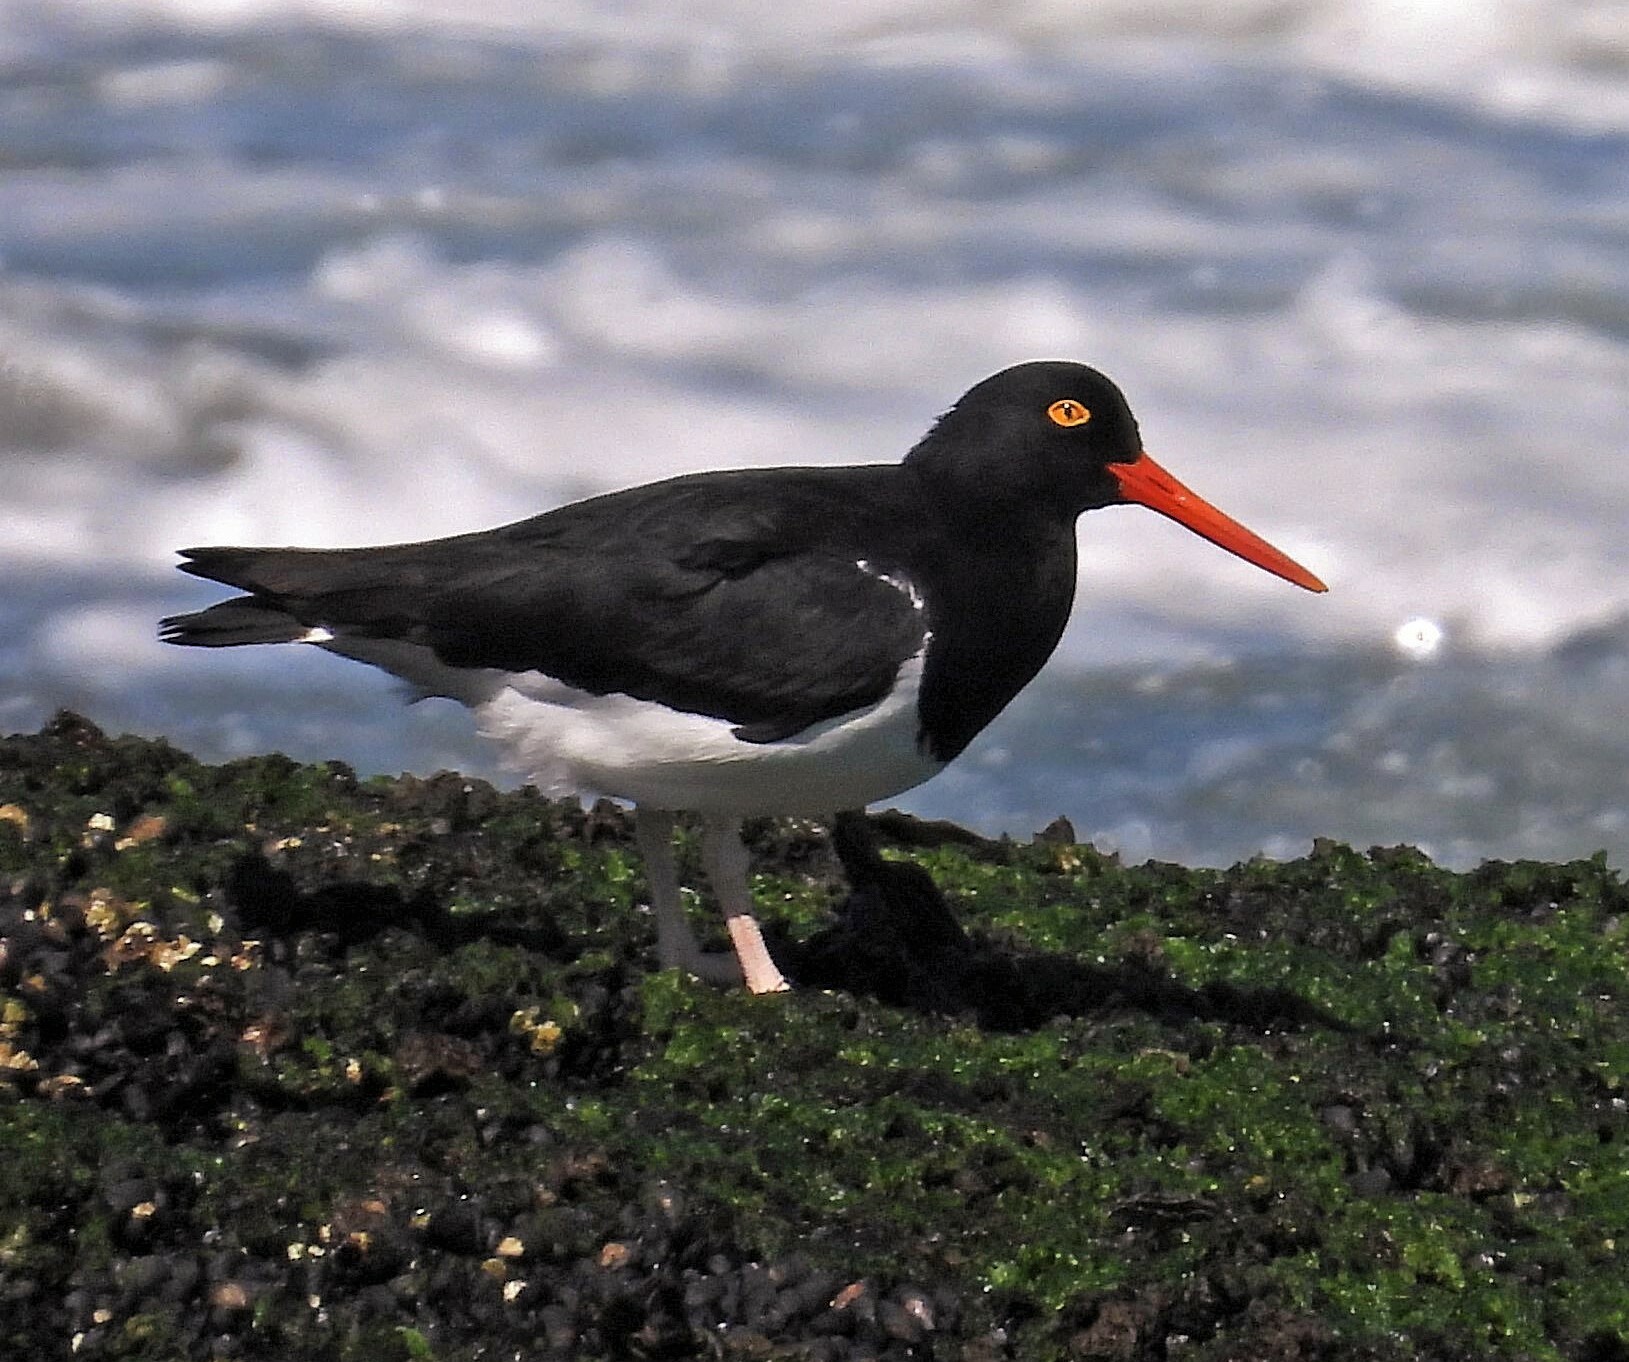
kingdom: Animalia
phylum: Chordata
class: Aves
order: Charadriiformes
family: Haematopodidae
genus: Haematopus
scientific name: Haematopus leucopodus
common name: Magellanic oystercatcher
